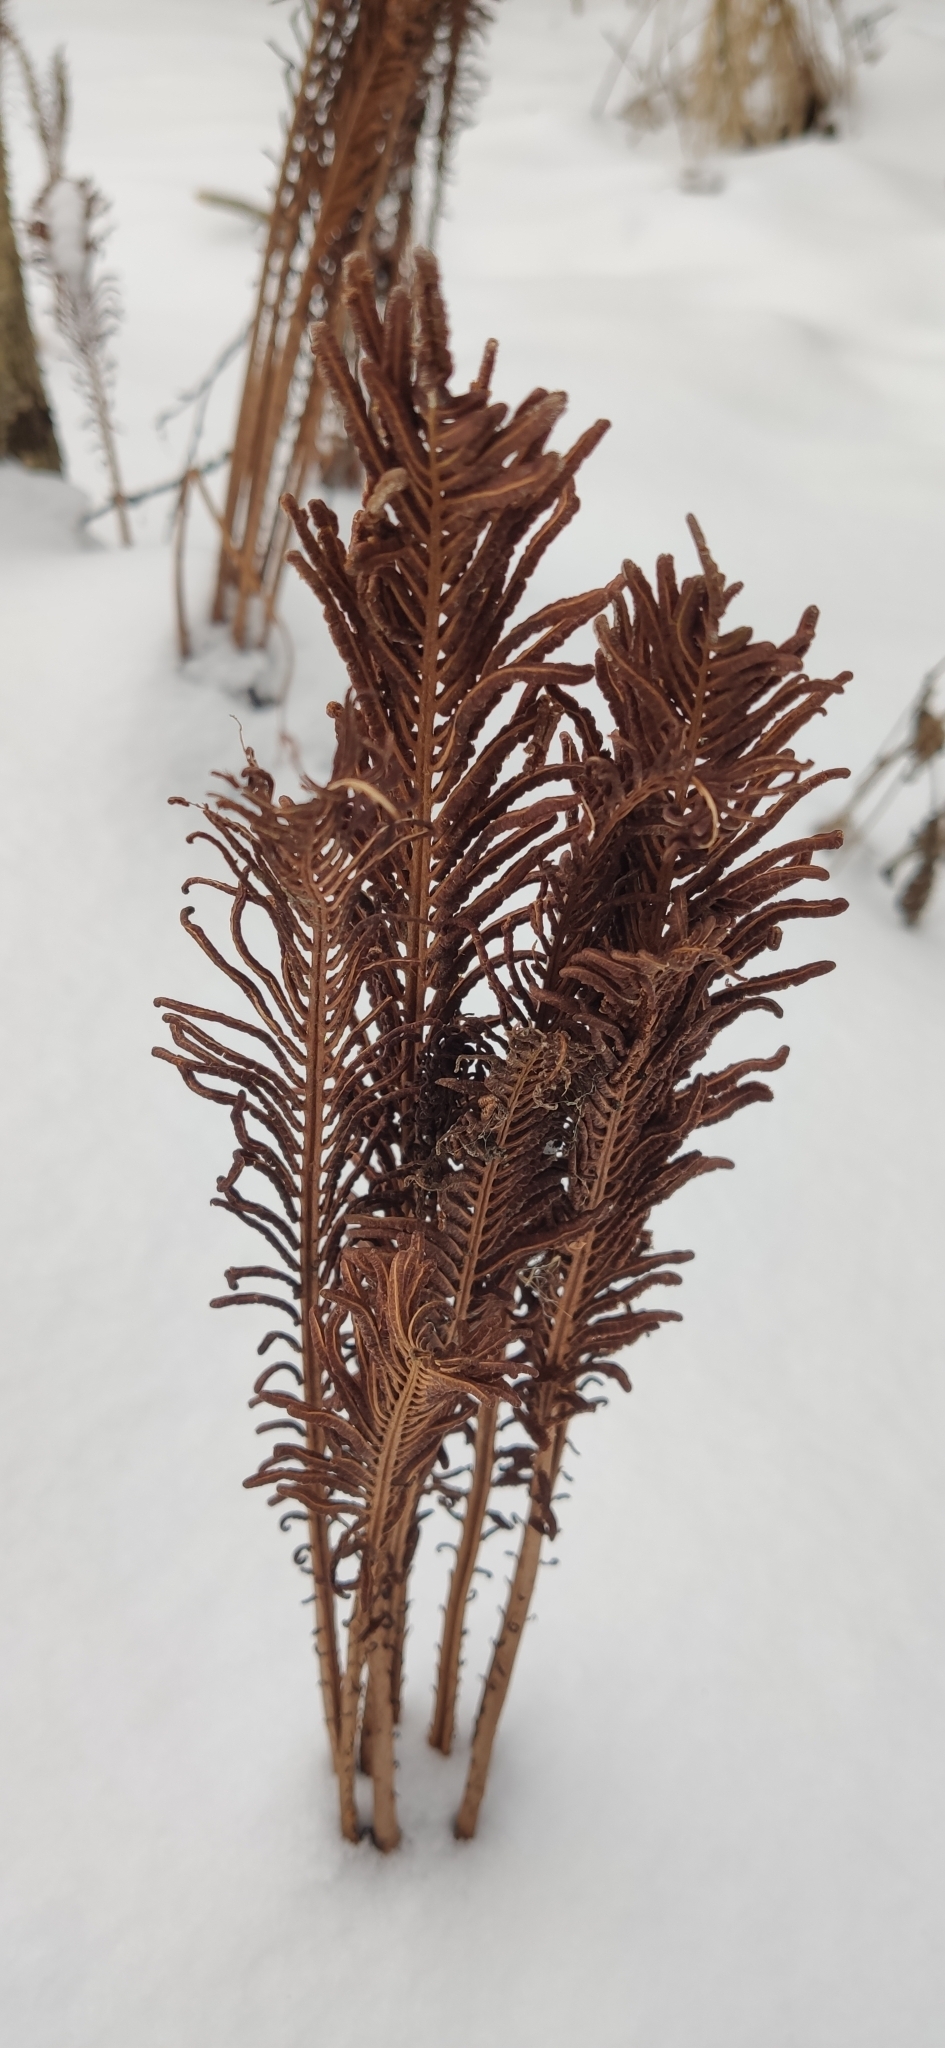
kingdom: Plantae
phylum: Tracheophyta
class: Polypodiopsida
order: Polypodiales
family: Onocleaceae
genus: Matteuccia
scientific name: Matteuccia struthiopteris
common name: Ostrich fern
